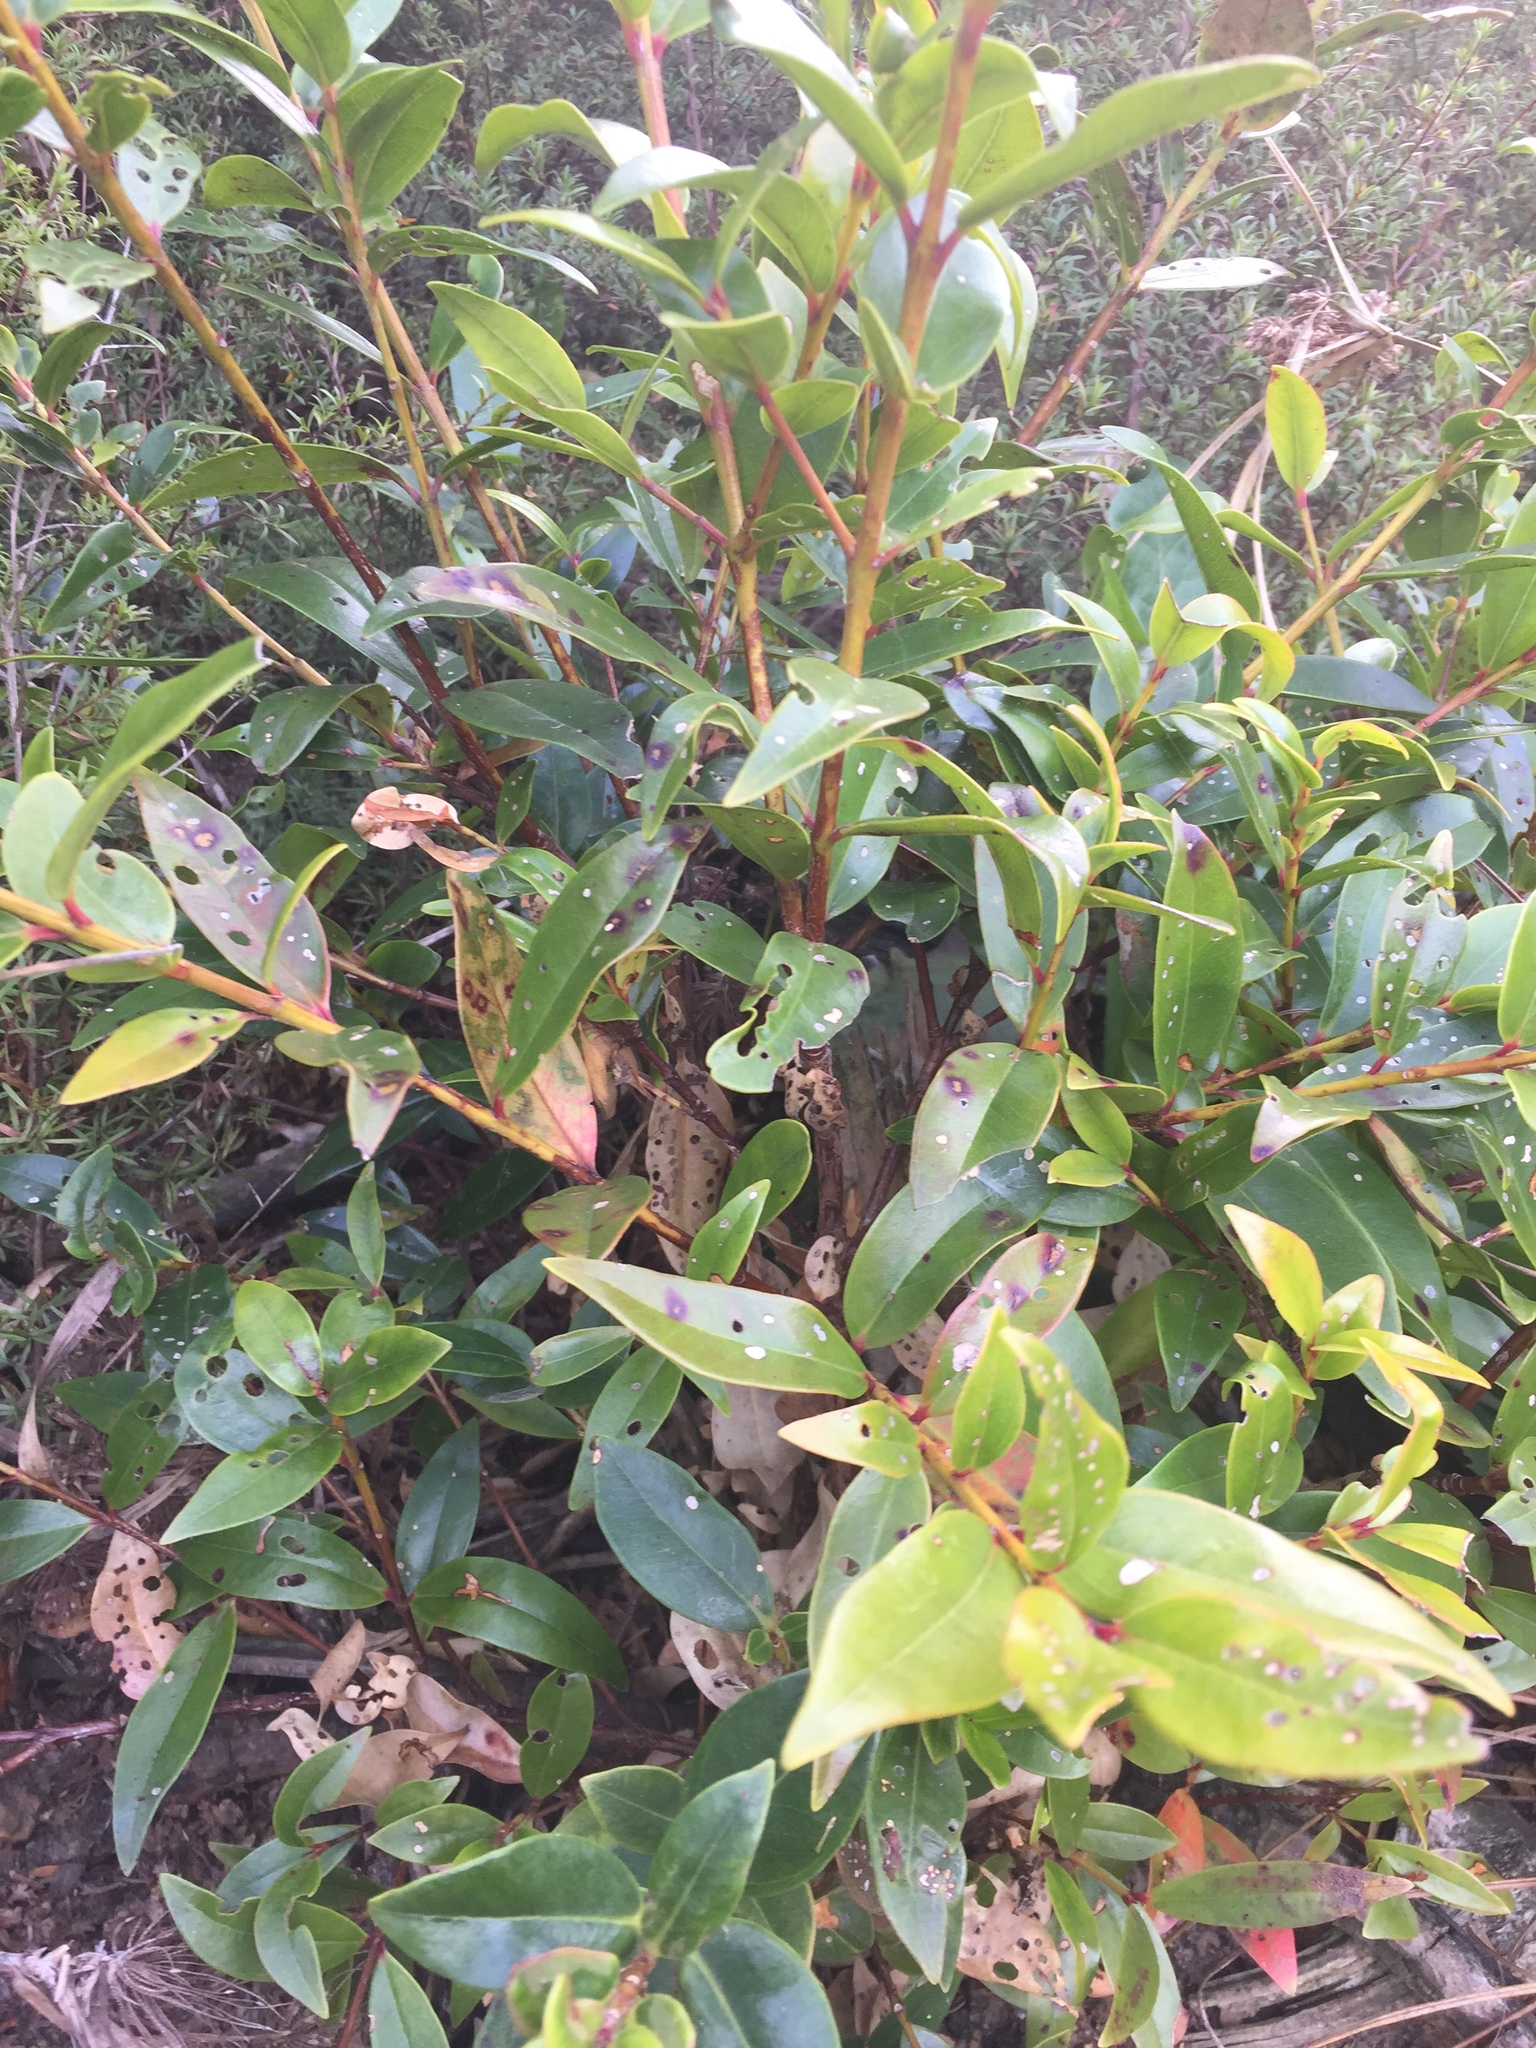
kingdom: Plantae
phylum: Tracheophyta
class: Magnoliopsida
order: Myrtales
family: Myrtaceae
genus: Metrosideros
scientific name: Metrosideros excelsa
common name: New zealand christmastree
